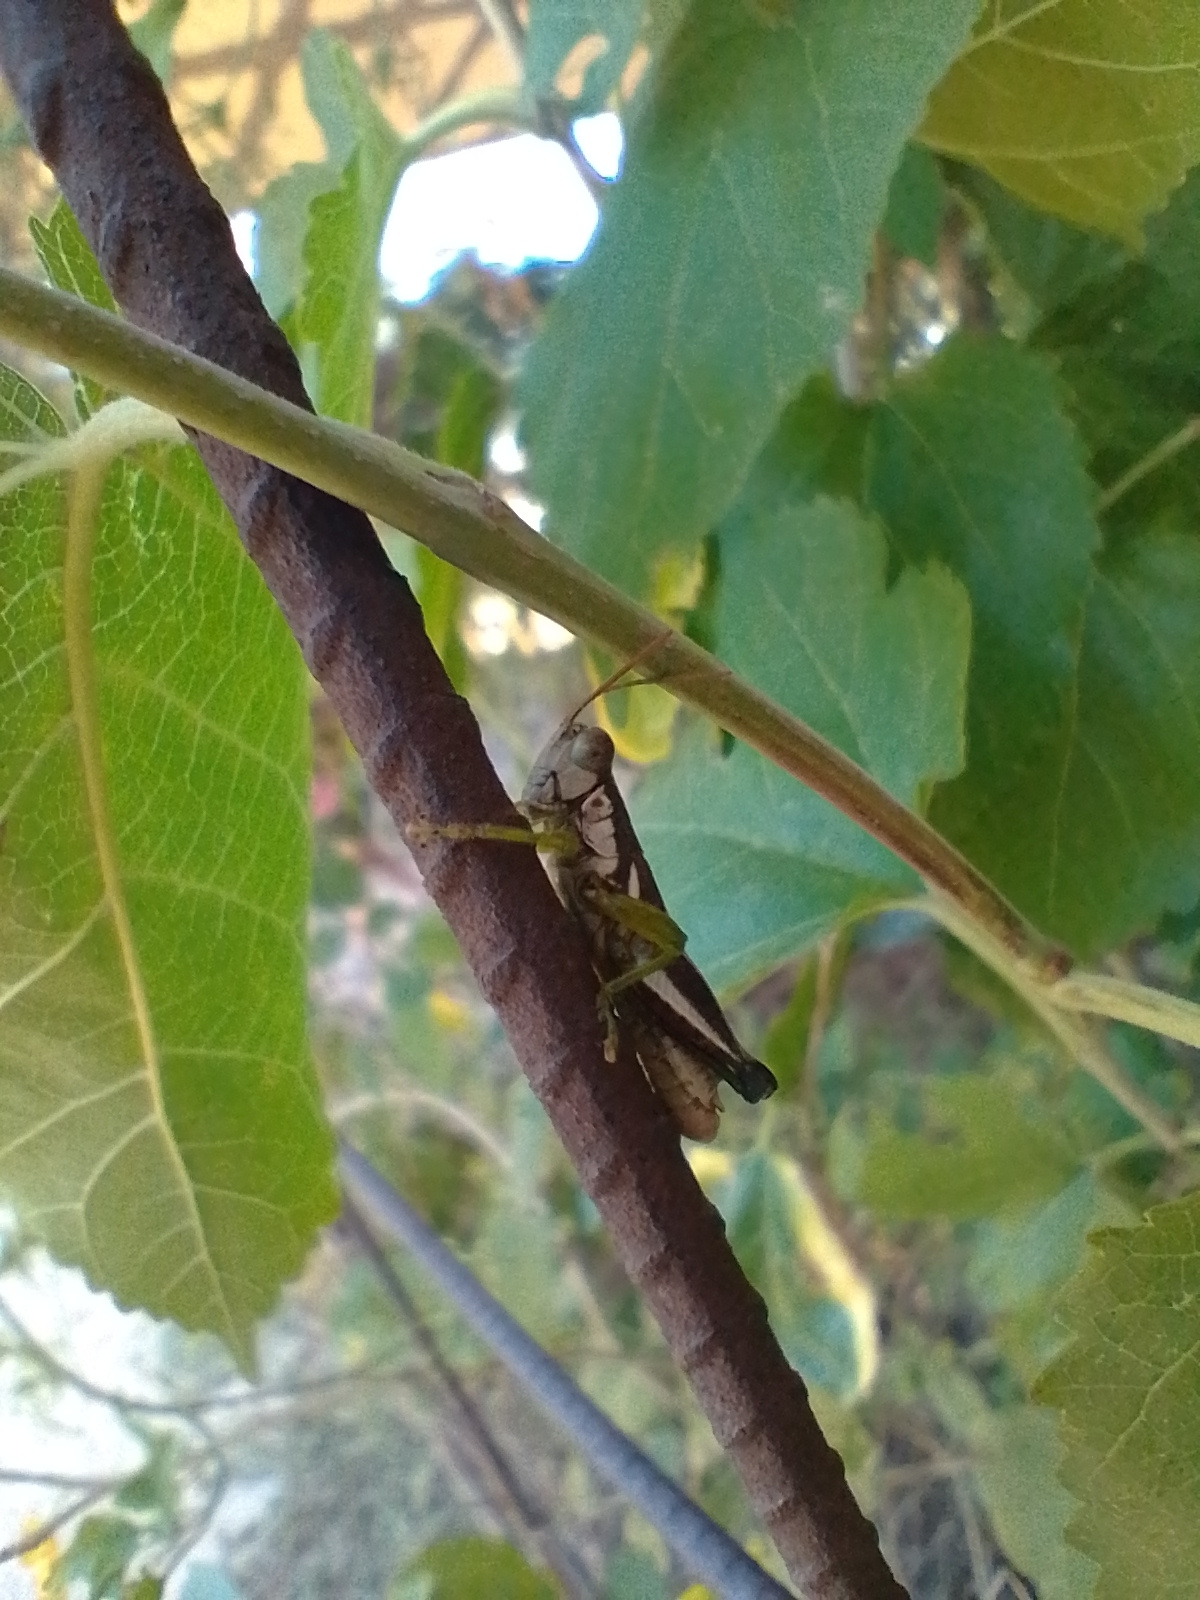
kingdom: Animalia
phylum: Arthropoda
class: Insecta
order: Orthoptera
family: Acrididae
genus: Dichroplus
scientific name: Dichroplus schulzi
